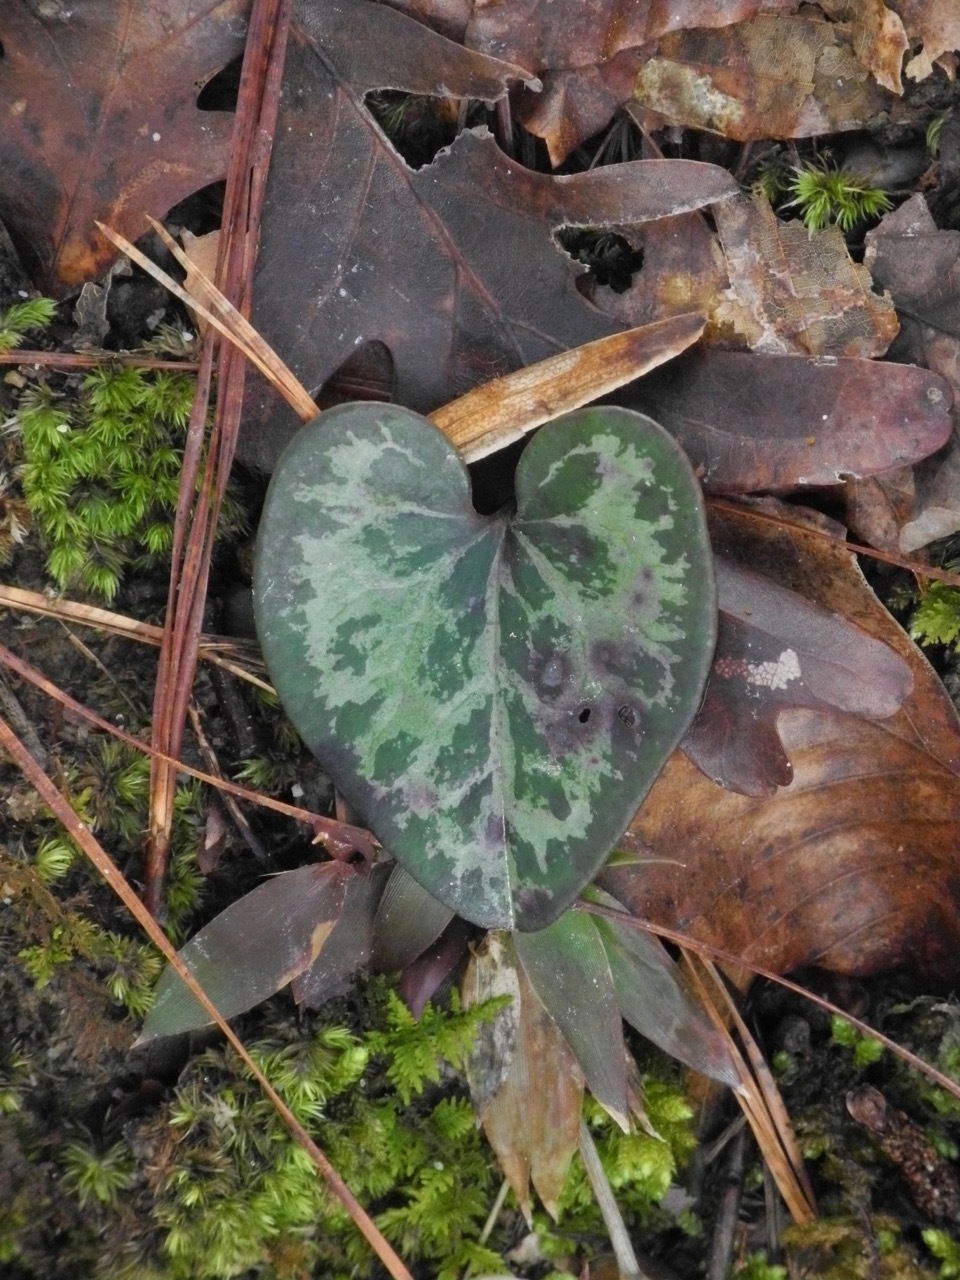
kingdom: Plantae
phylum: Tracheophyta
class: Magnoliopsida
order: Piperales
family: Aristolochiaceae
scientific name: Aristolochiaceae
